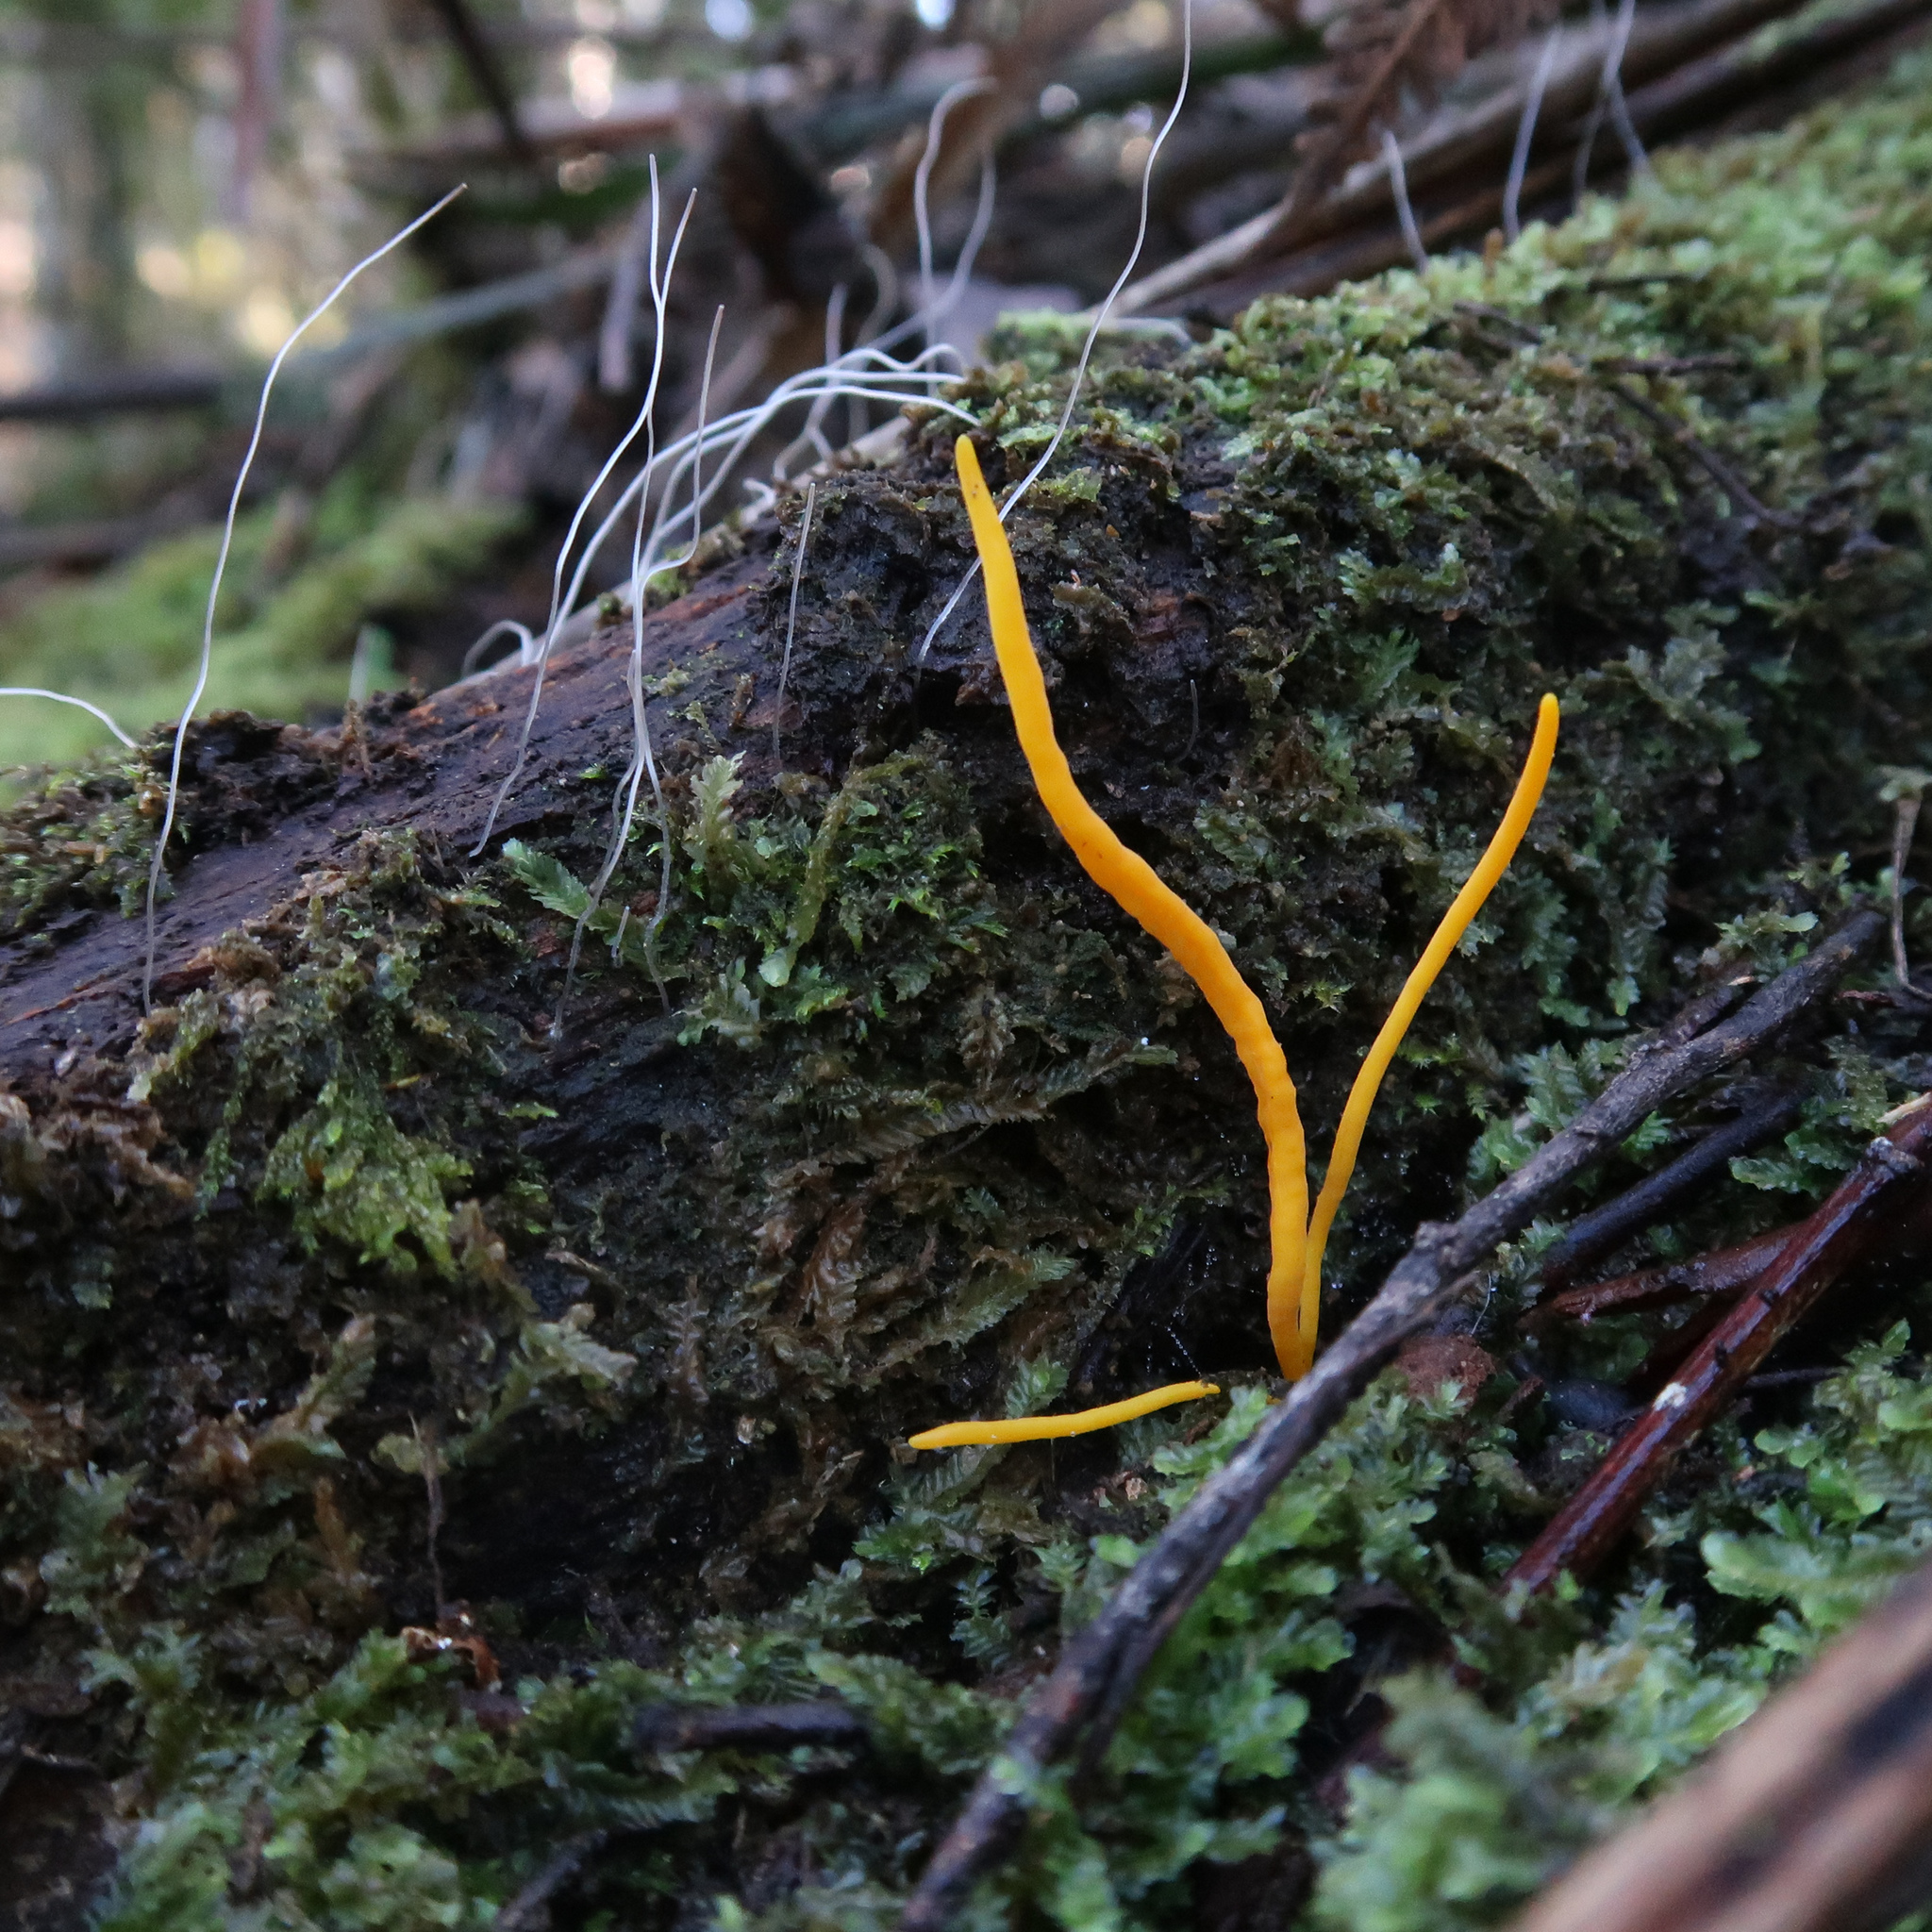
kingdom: Fungi
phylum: Basidiomycota
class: Agaricomycetes
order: Agaricales
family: Clavariaceae
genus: Clavulinopsis
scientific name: Clavulinopsis amoena
